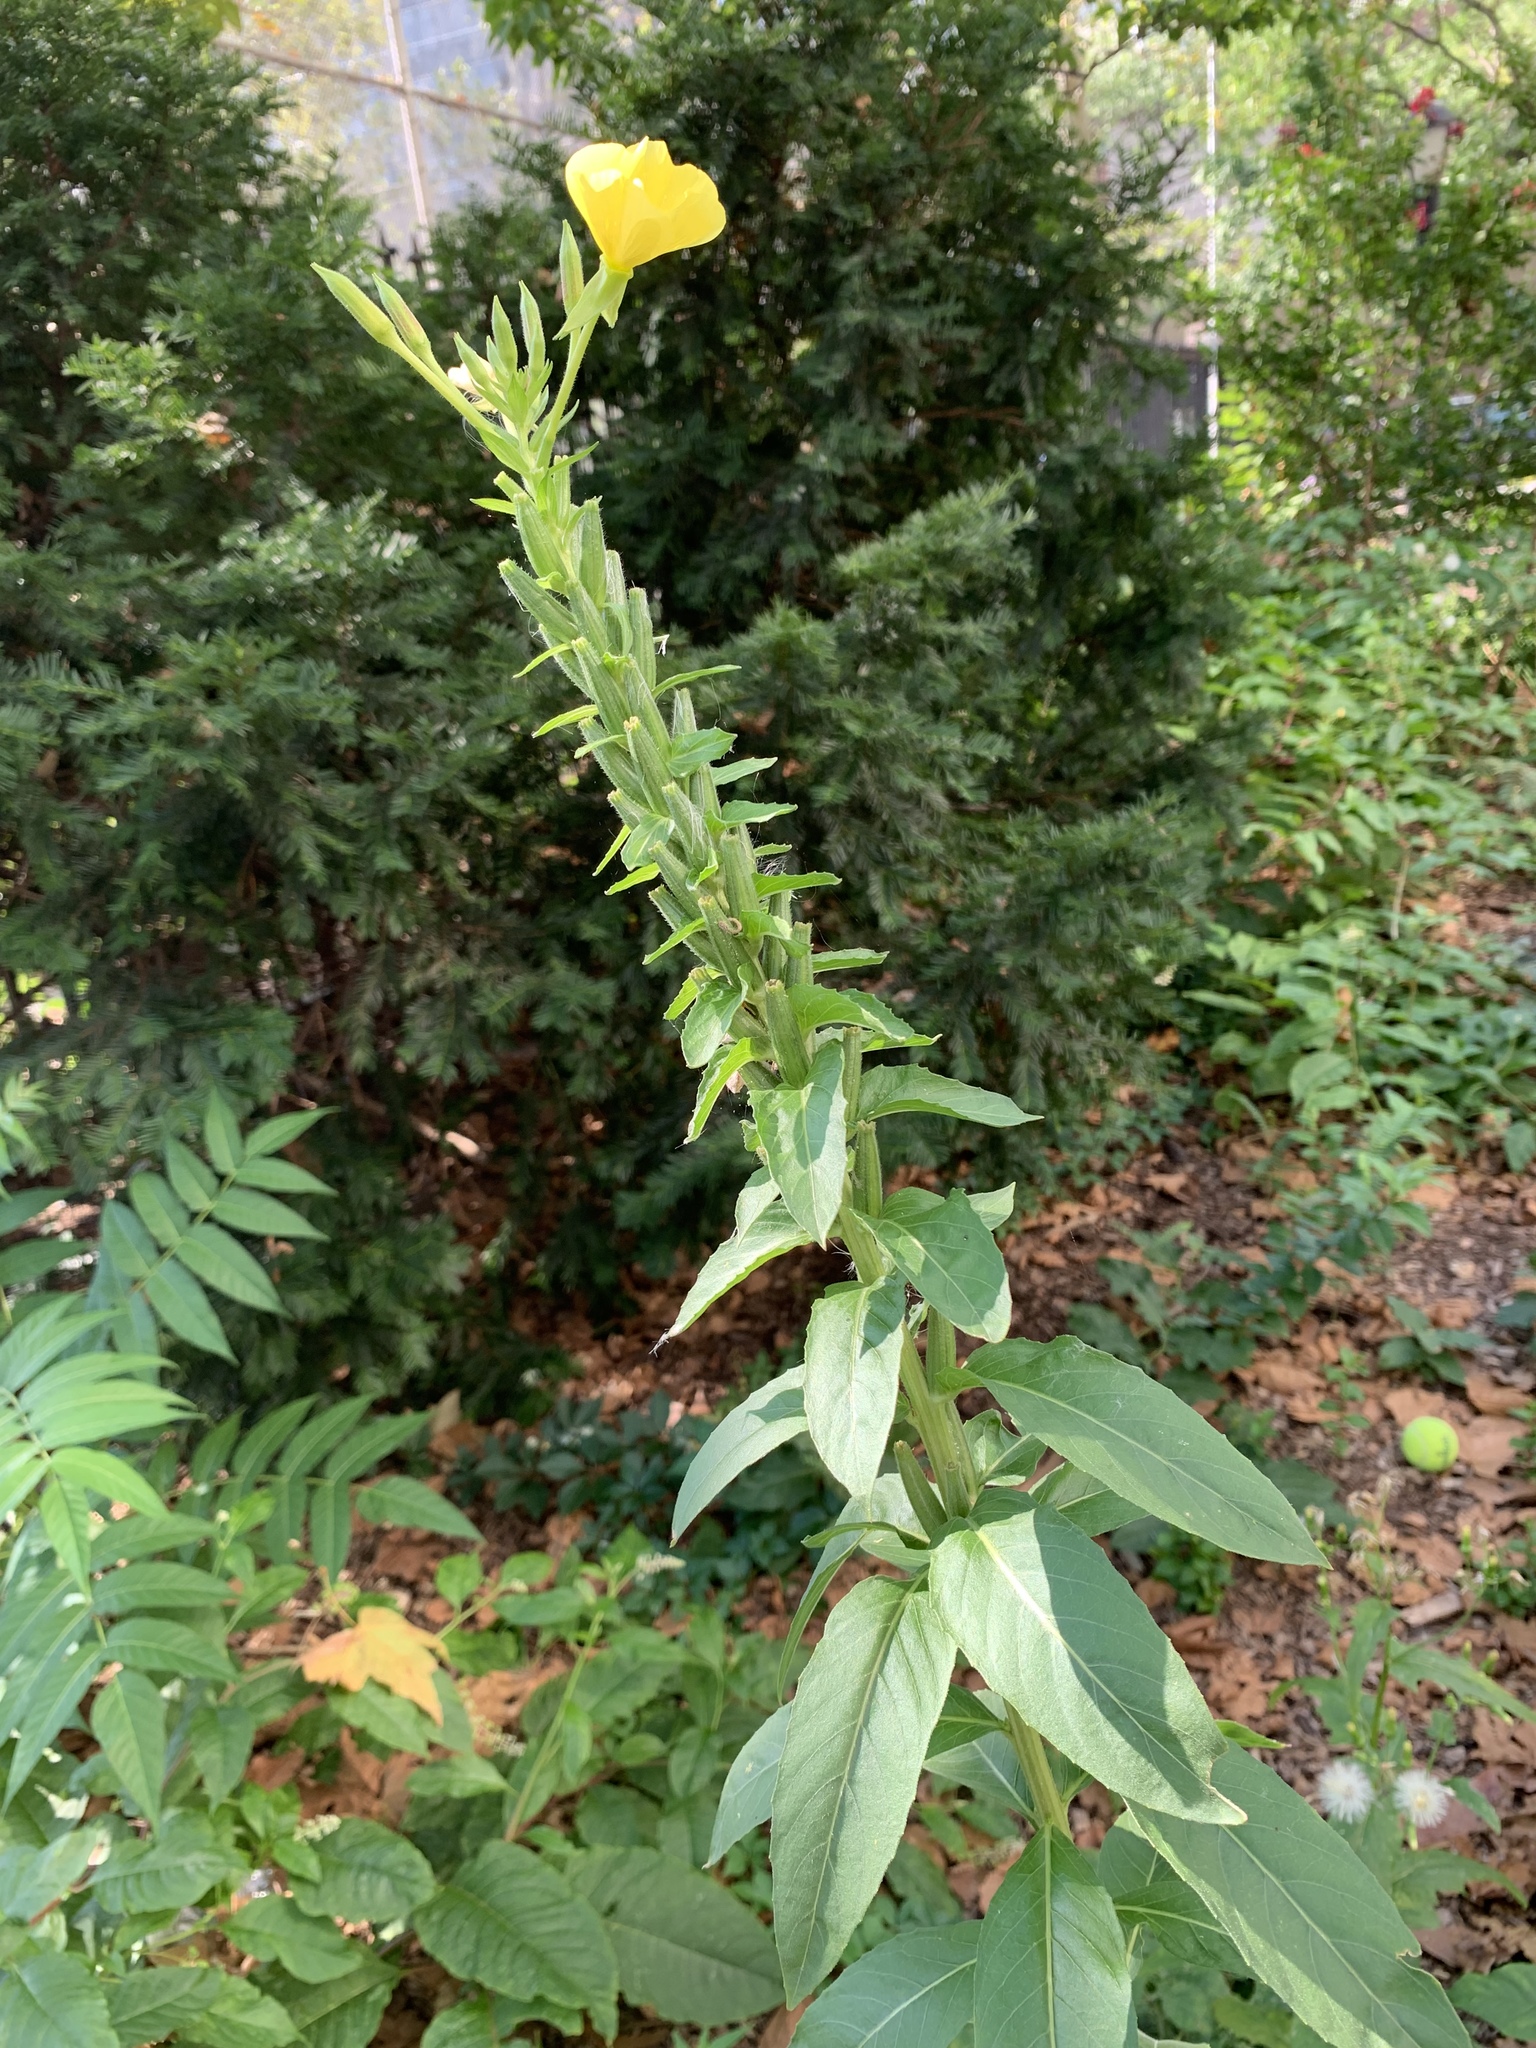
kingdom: Plantae
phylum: Tracheophyta
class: Magnoliopsida
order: Myrtales
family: Onagraceae
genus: Oenothera
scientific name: Oenothera biennis
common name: Common evening-primrose
